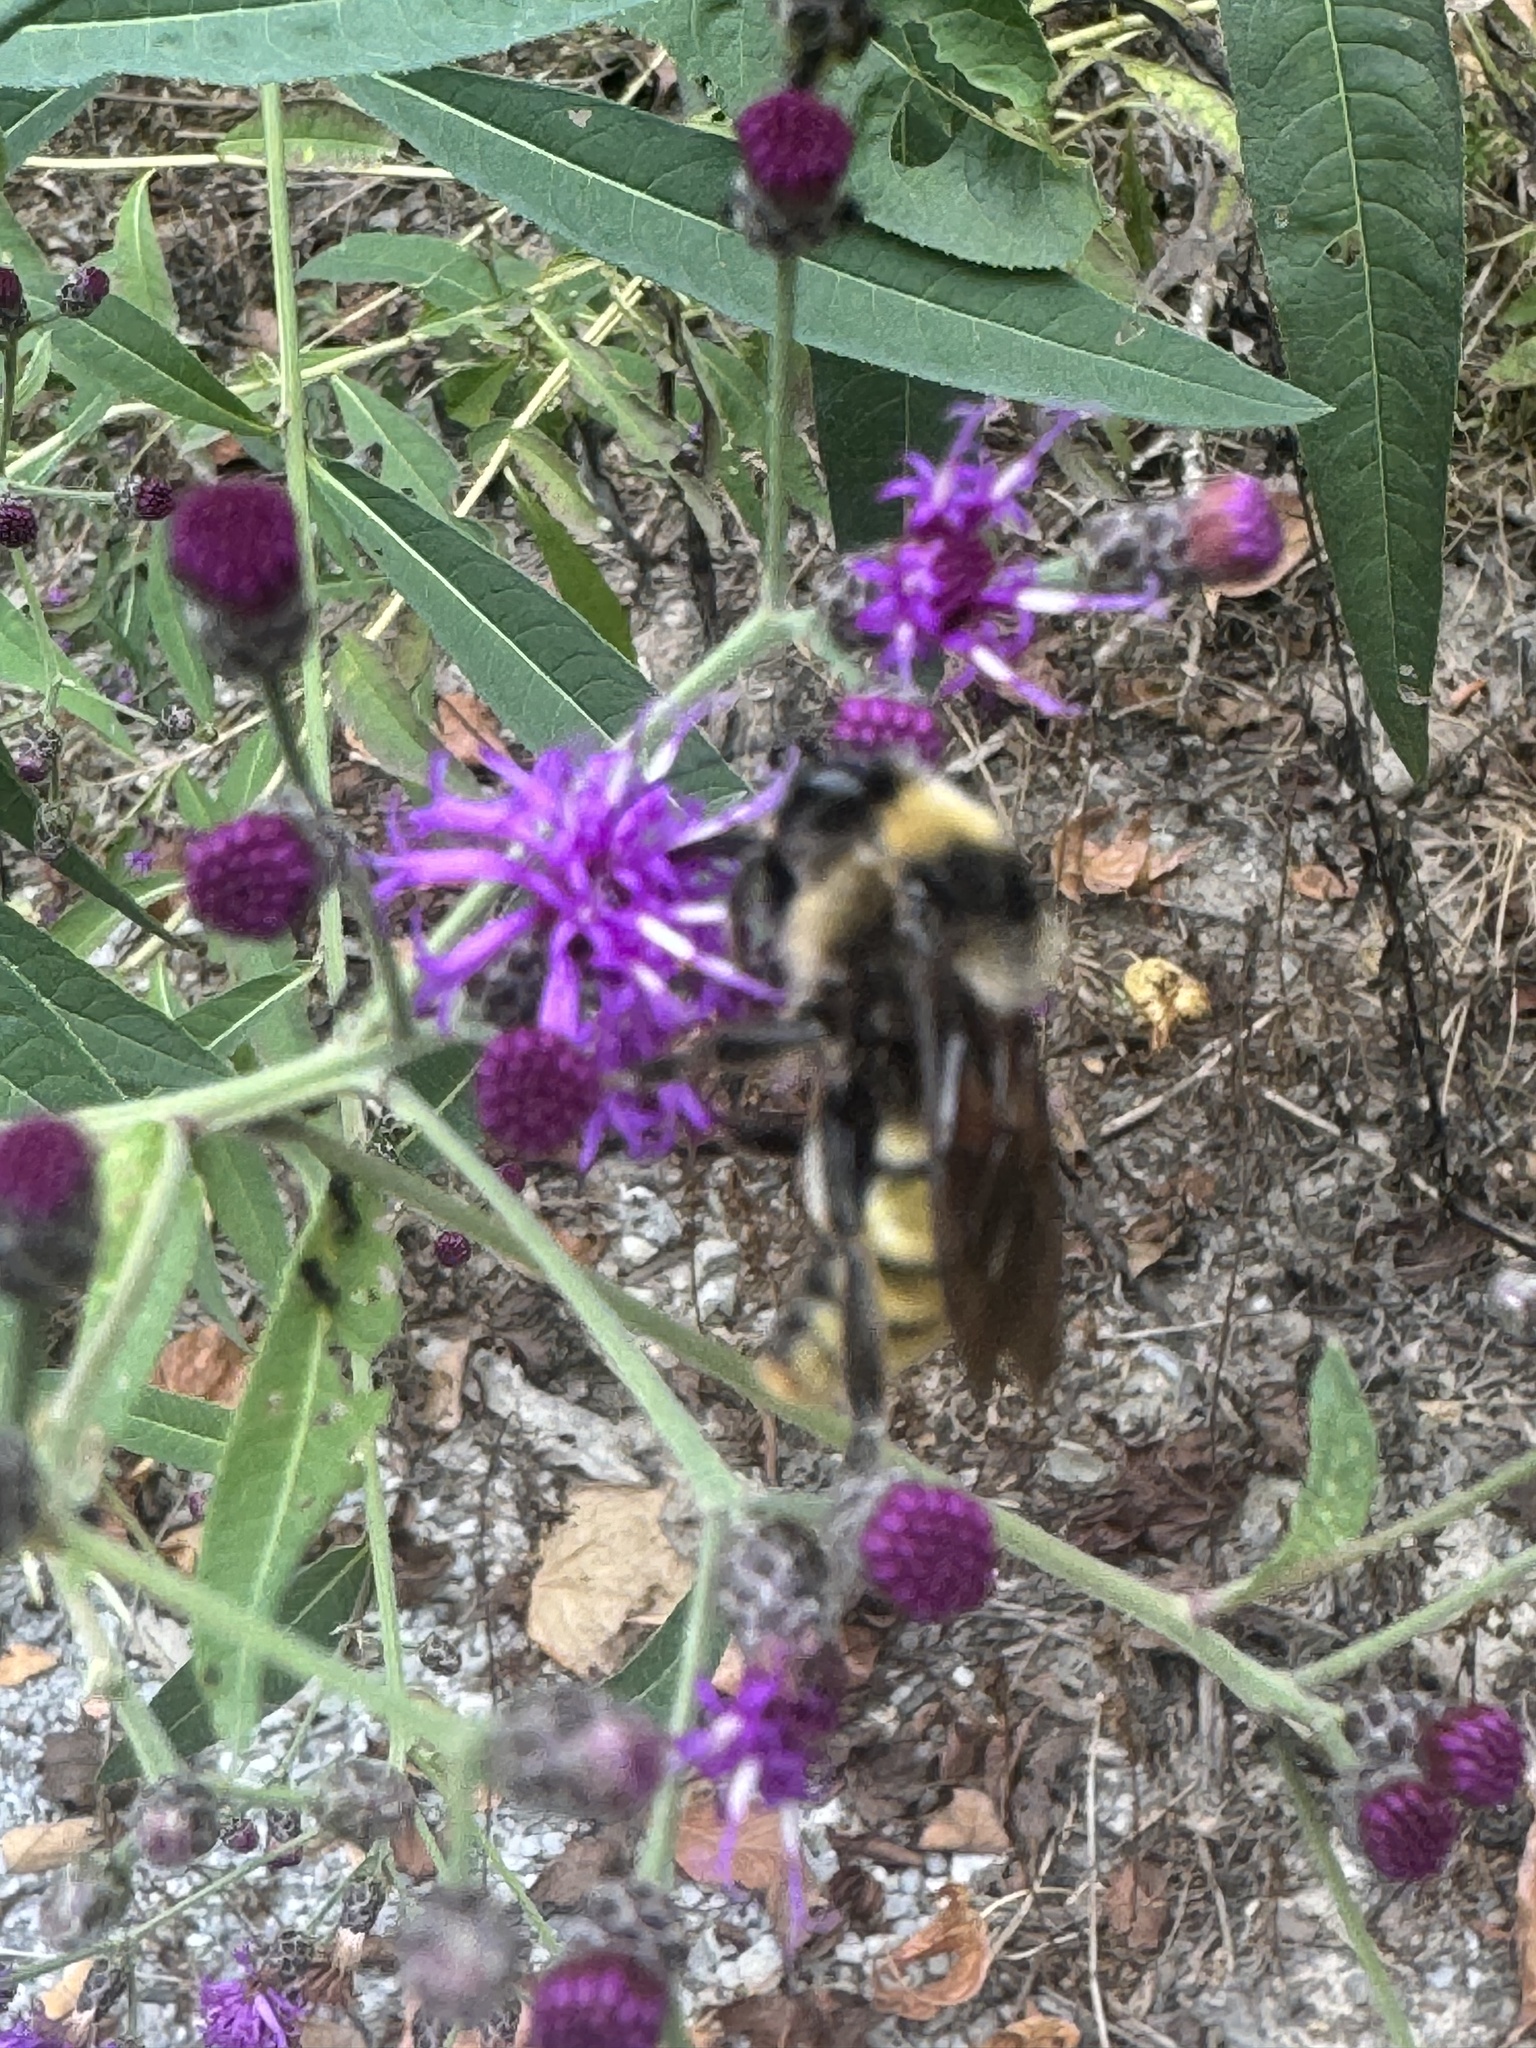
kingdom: Animalia
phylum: Arthropoda
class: Insecta
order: Hymenoptera
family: Apidae
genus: Bombus
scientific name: Bombus pensylvanicus
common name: Bumble bee
